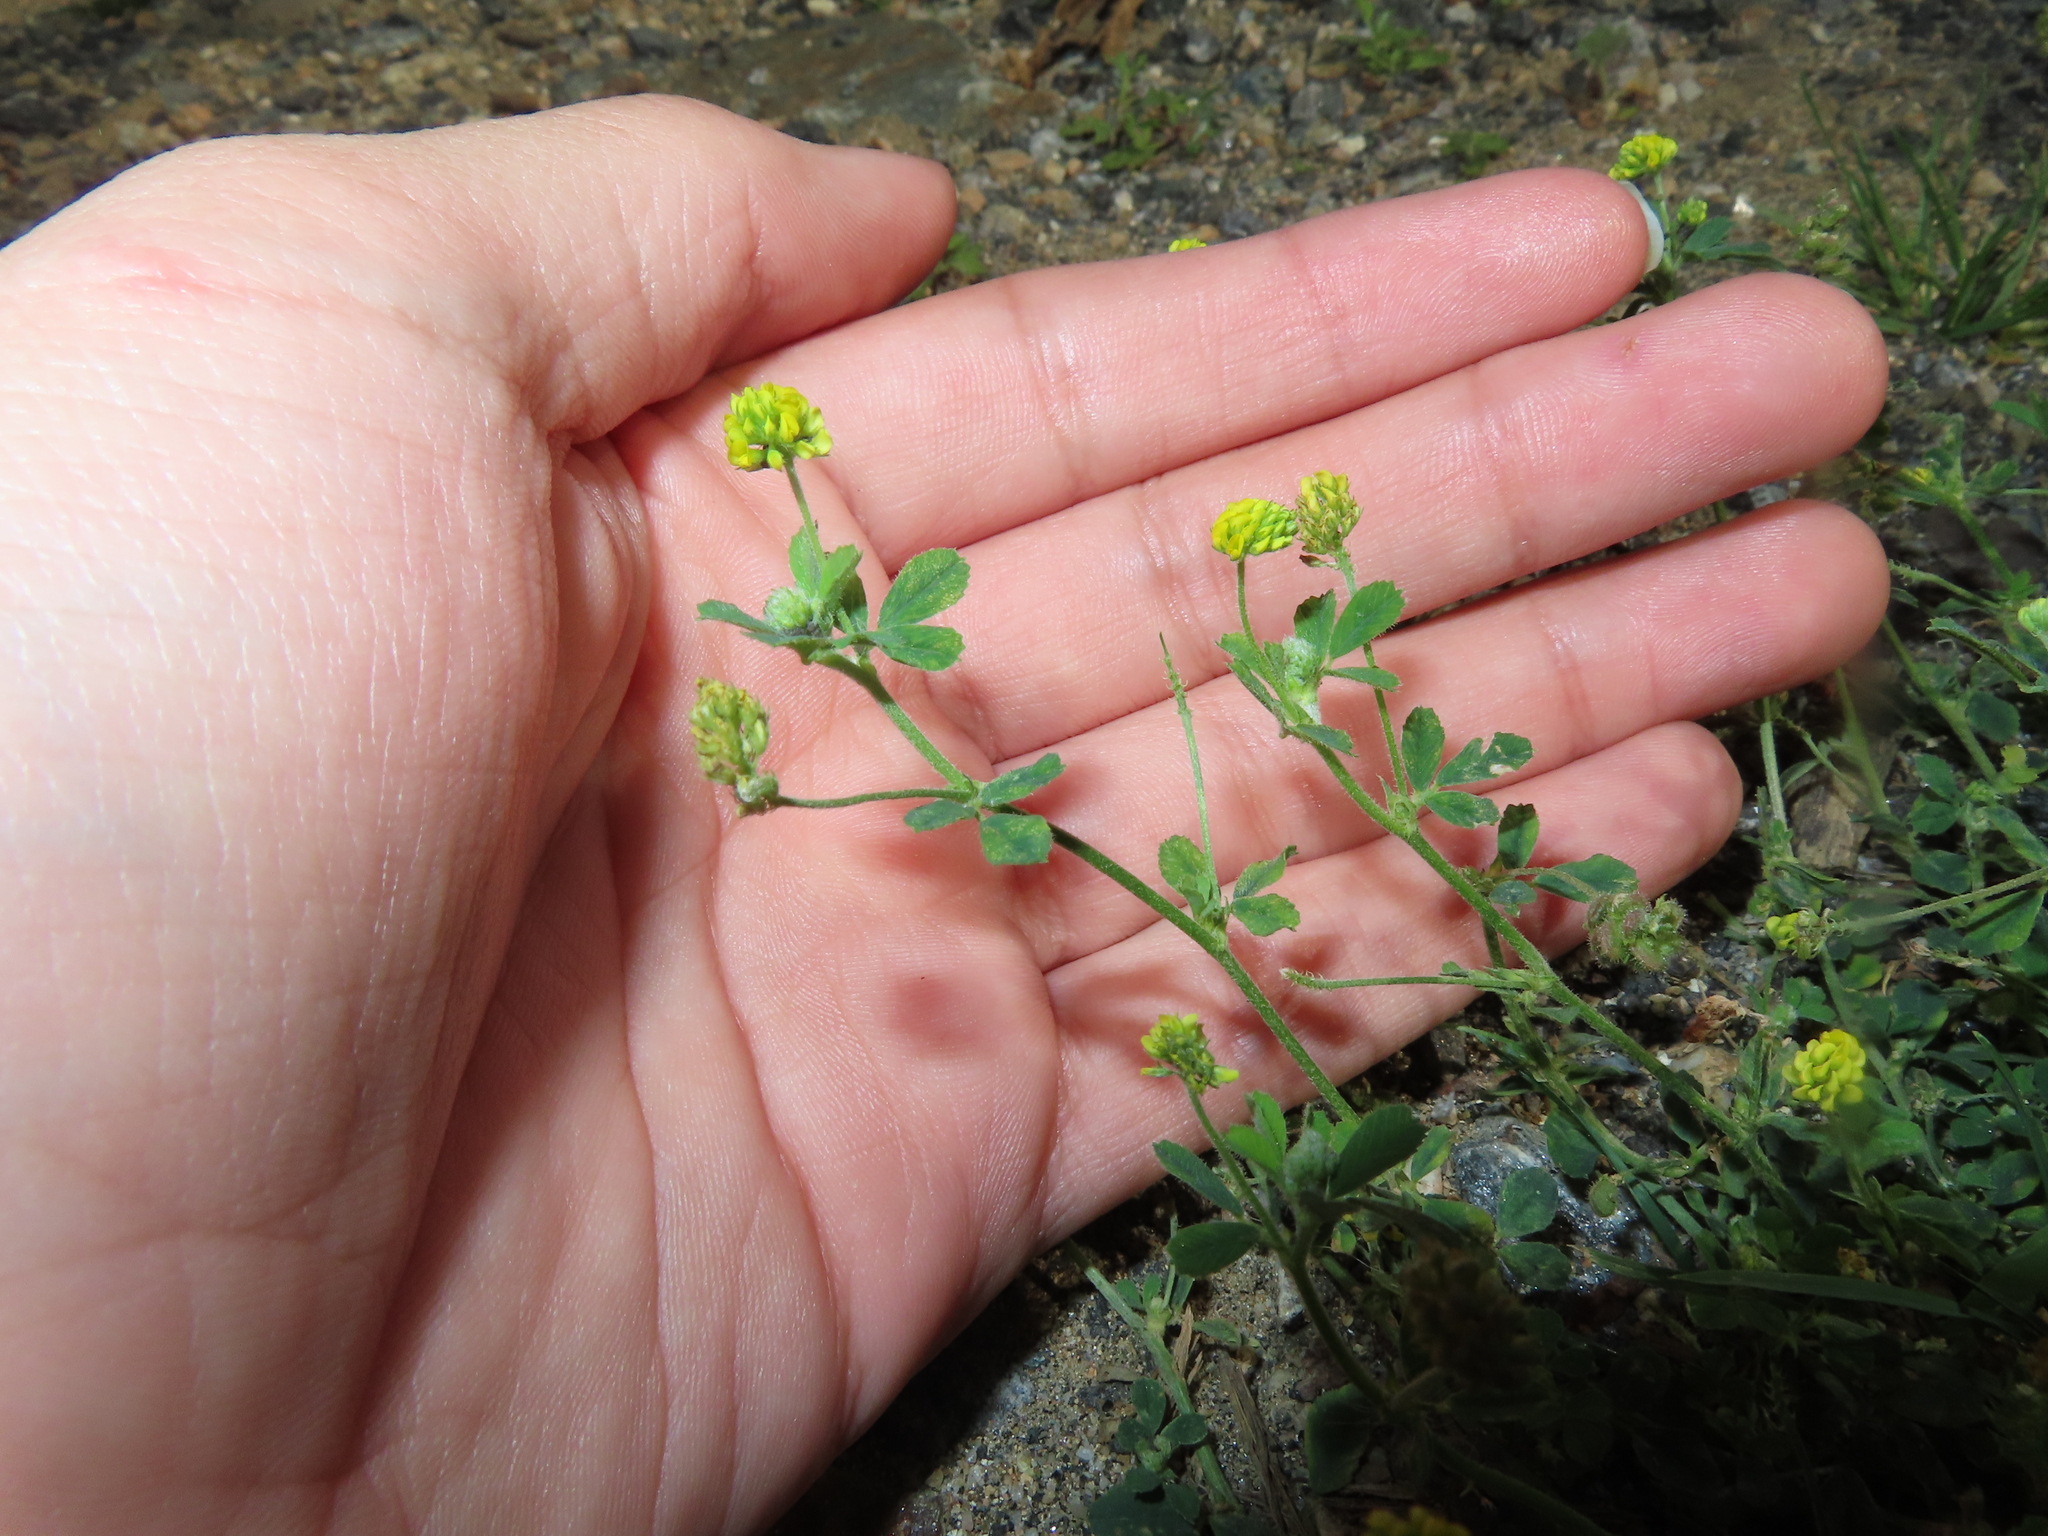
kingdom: Plantae
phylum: Tracheophyta
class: Magnoliopsida
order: Fabales
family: Fabaceae
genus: Medicago
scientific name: Medicago lupulina
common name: Black medick
